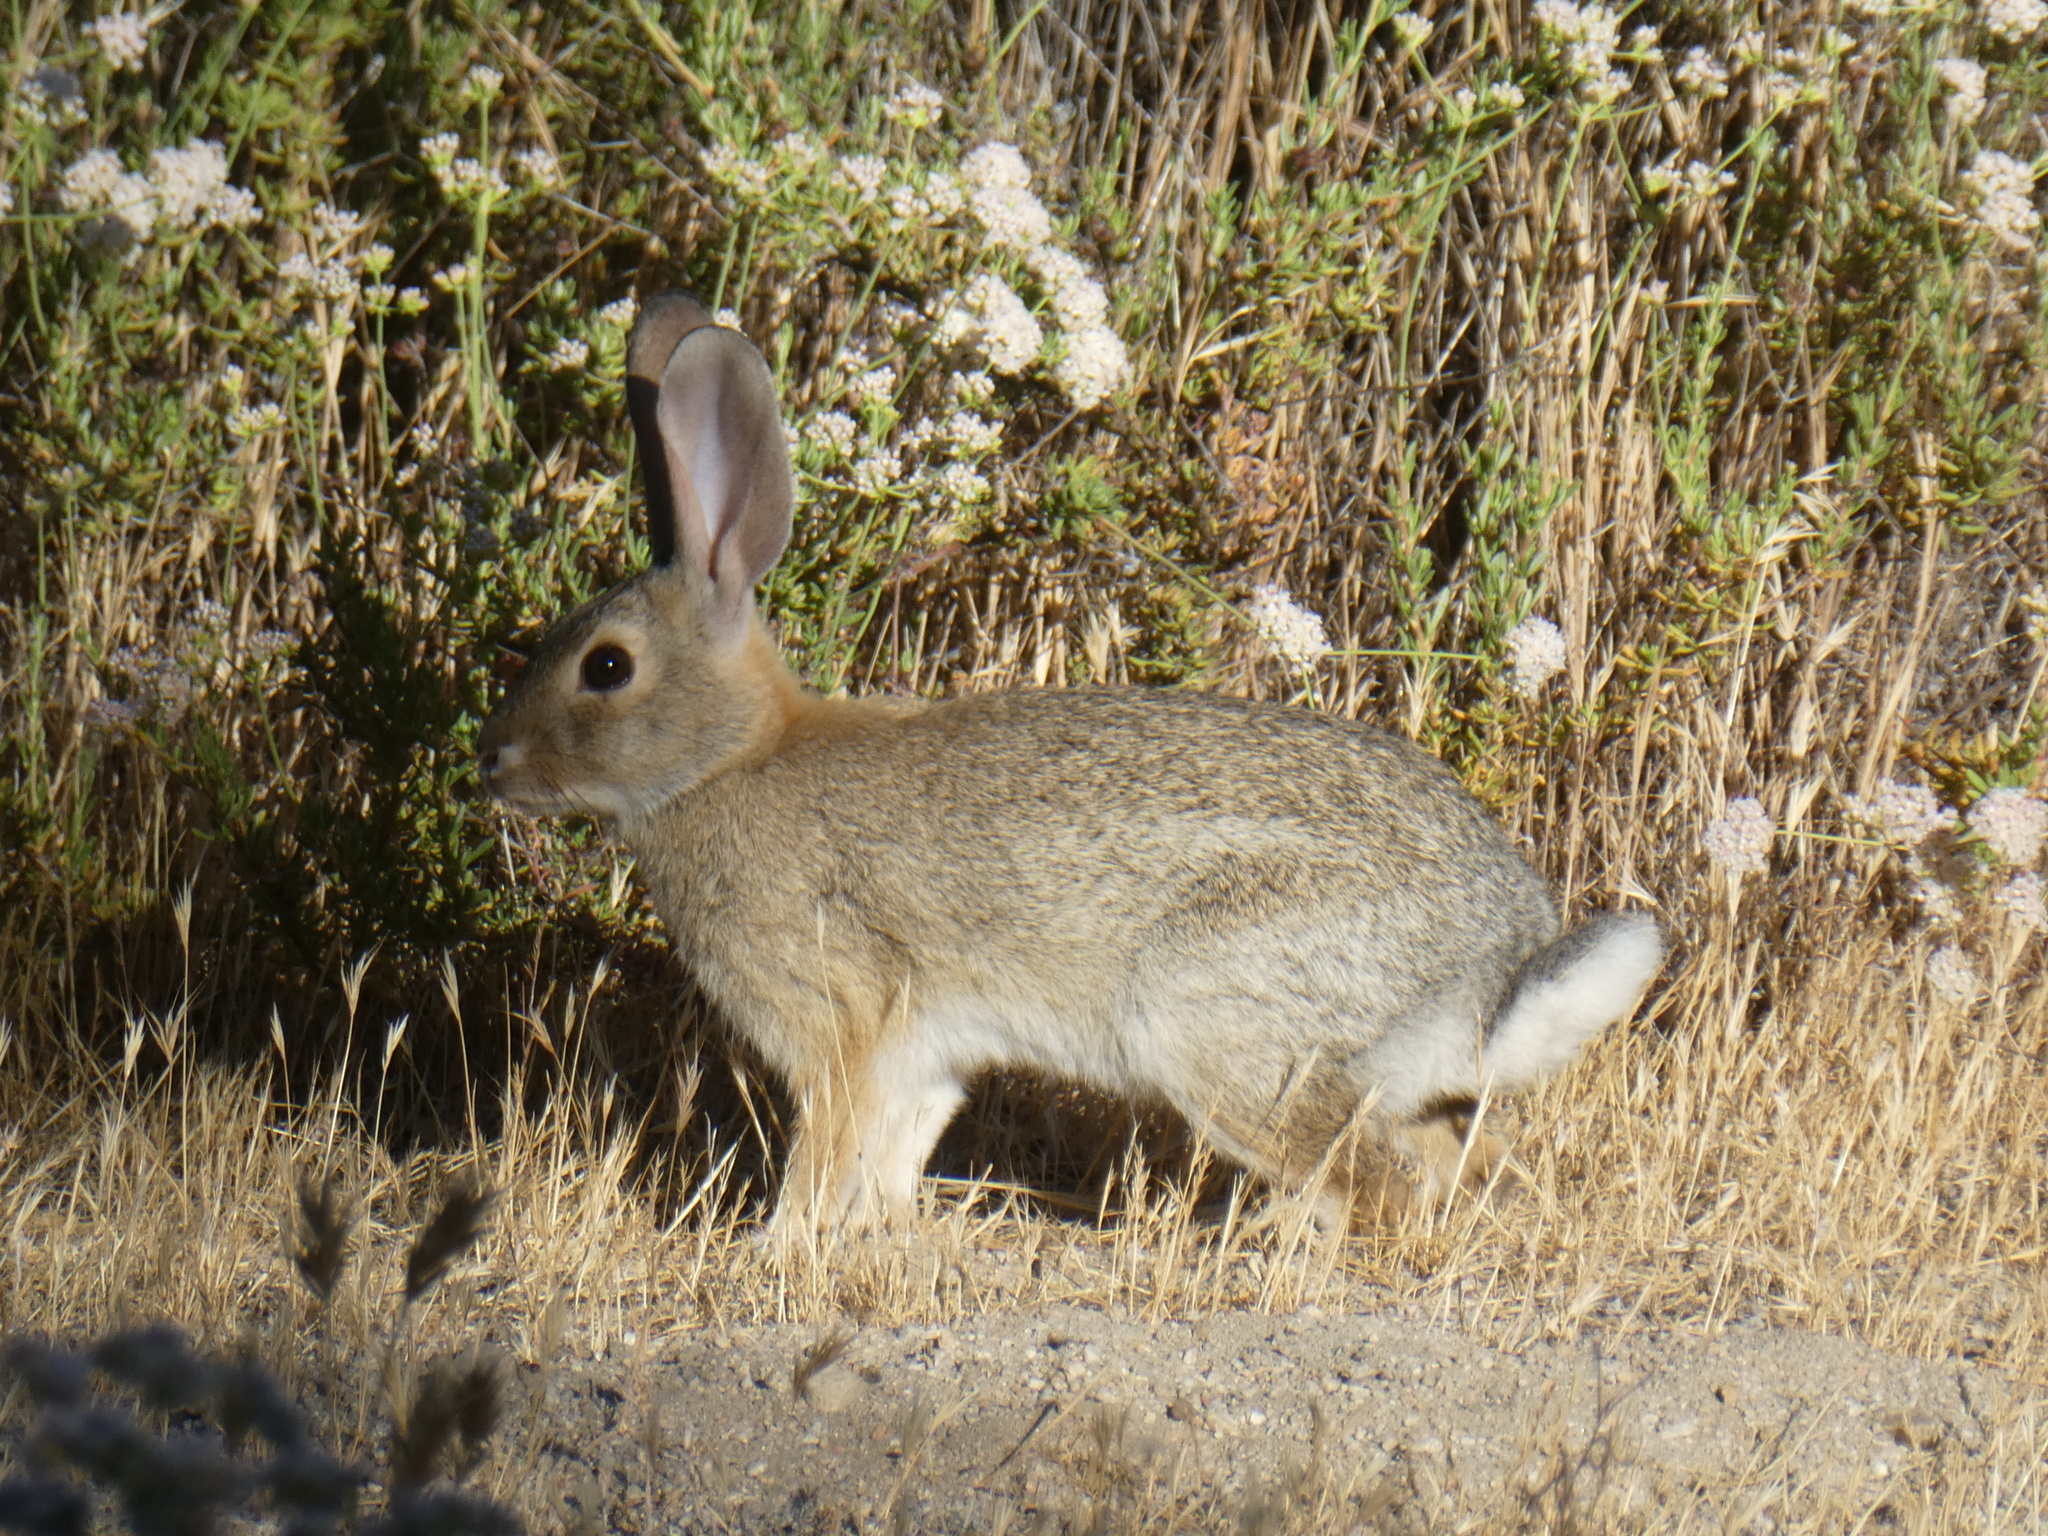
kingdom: Animalia
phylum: Chordata
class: Mammalia
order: Lagomorpha
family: Leporidae
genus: Sylvilagus
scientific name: Sylvilagus audubonii
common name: Desert cottontail
